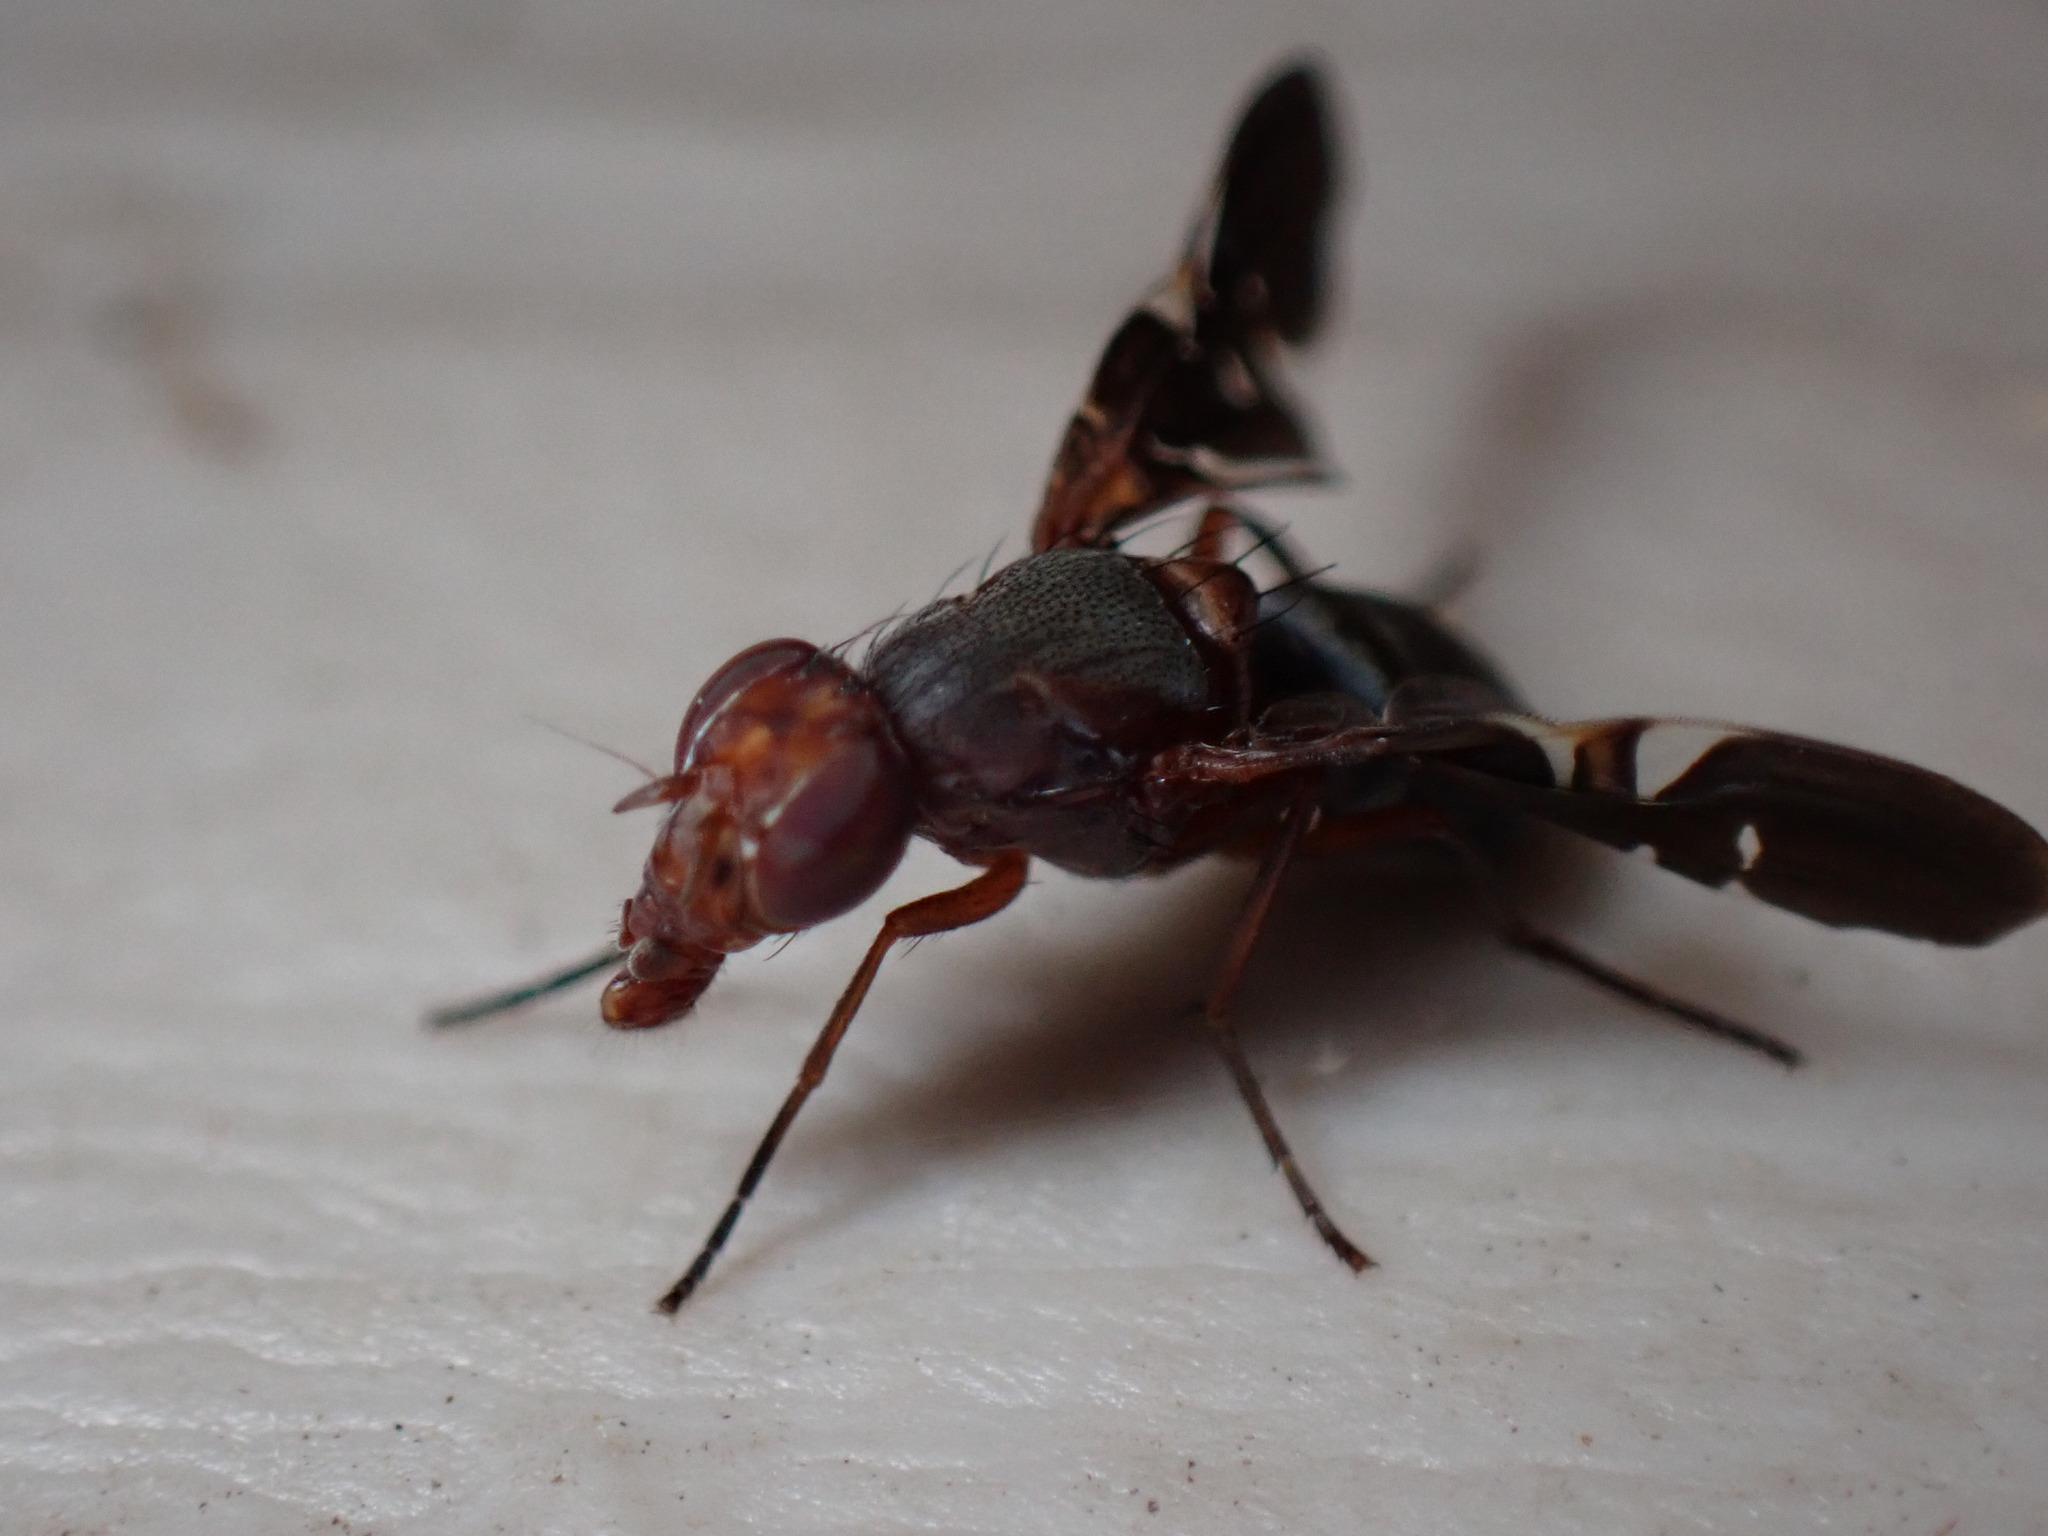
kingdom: Animalia
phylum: Arthropoda
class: Insecta
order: Diptera
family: Ulidiidae
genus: Delphinia
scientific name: Delphinia picta
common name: Common picture-winged fly
